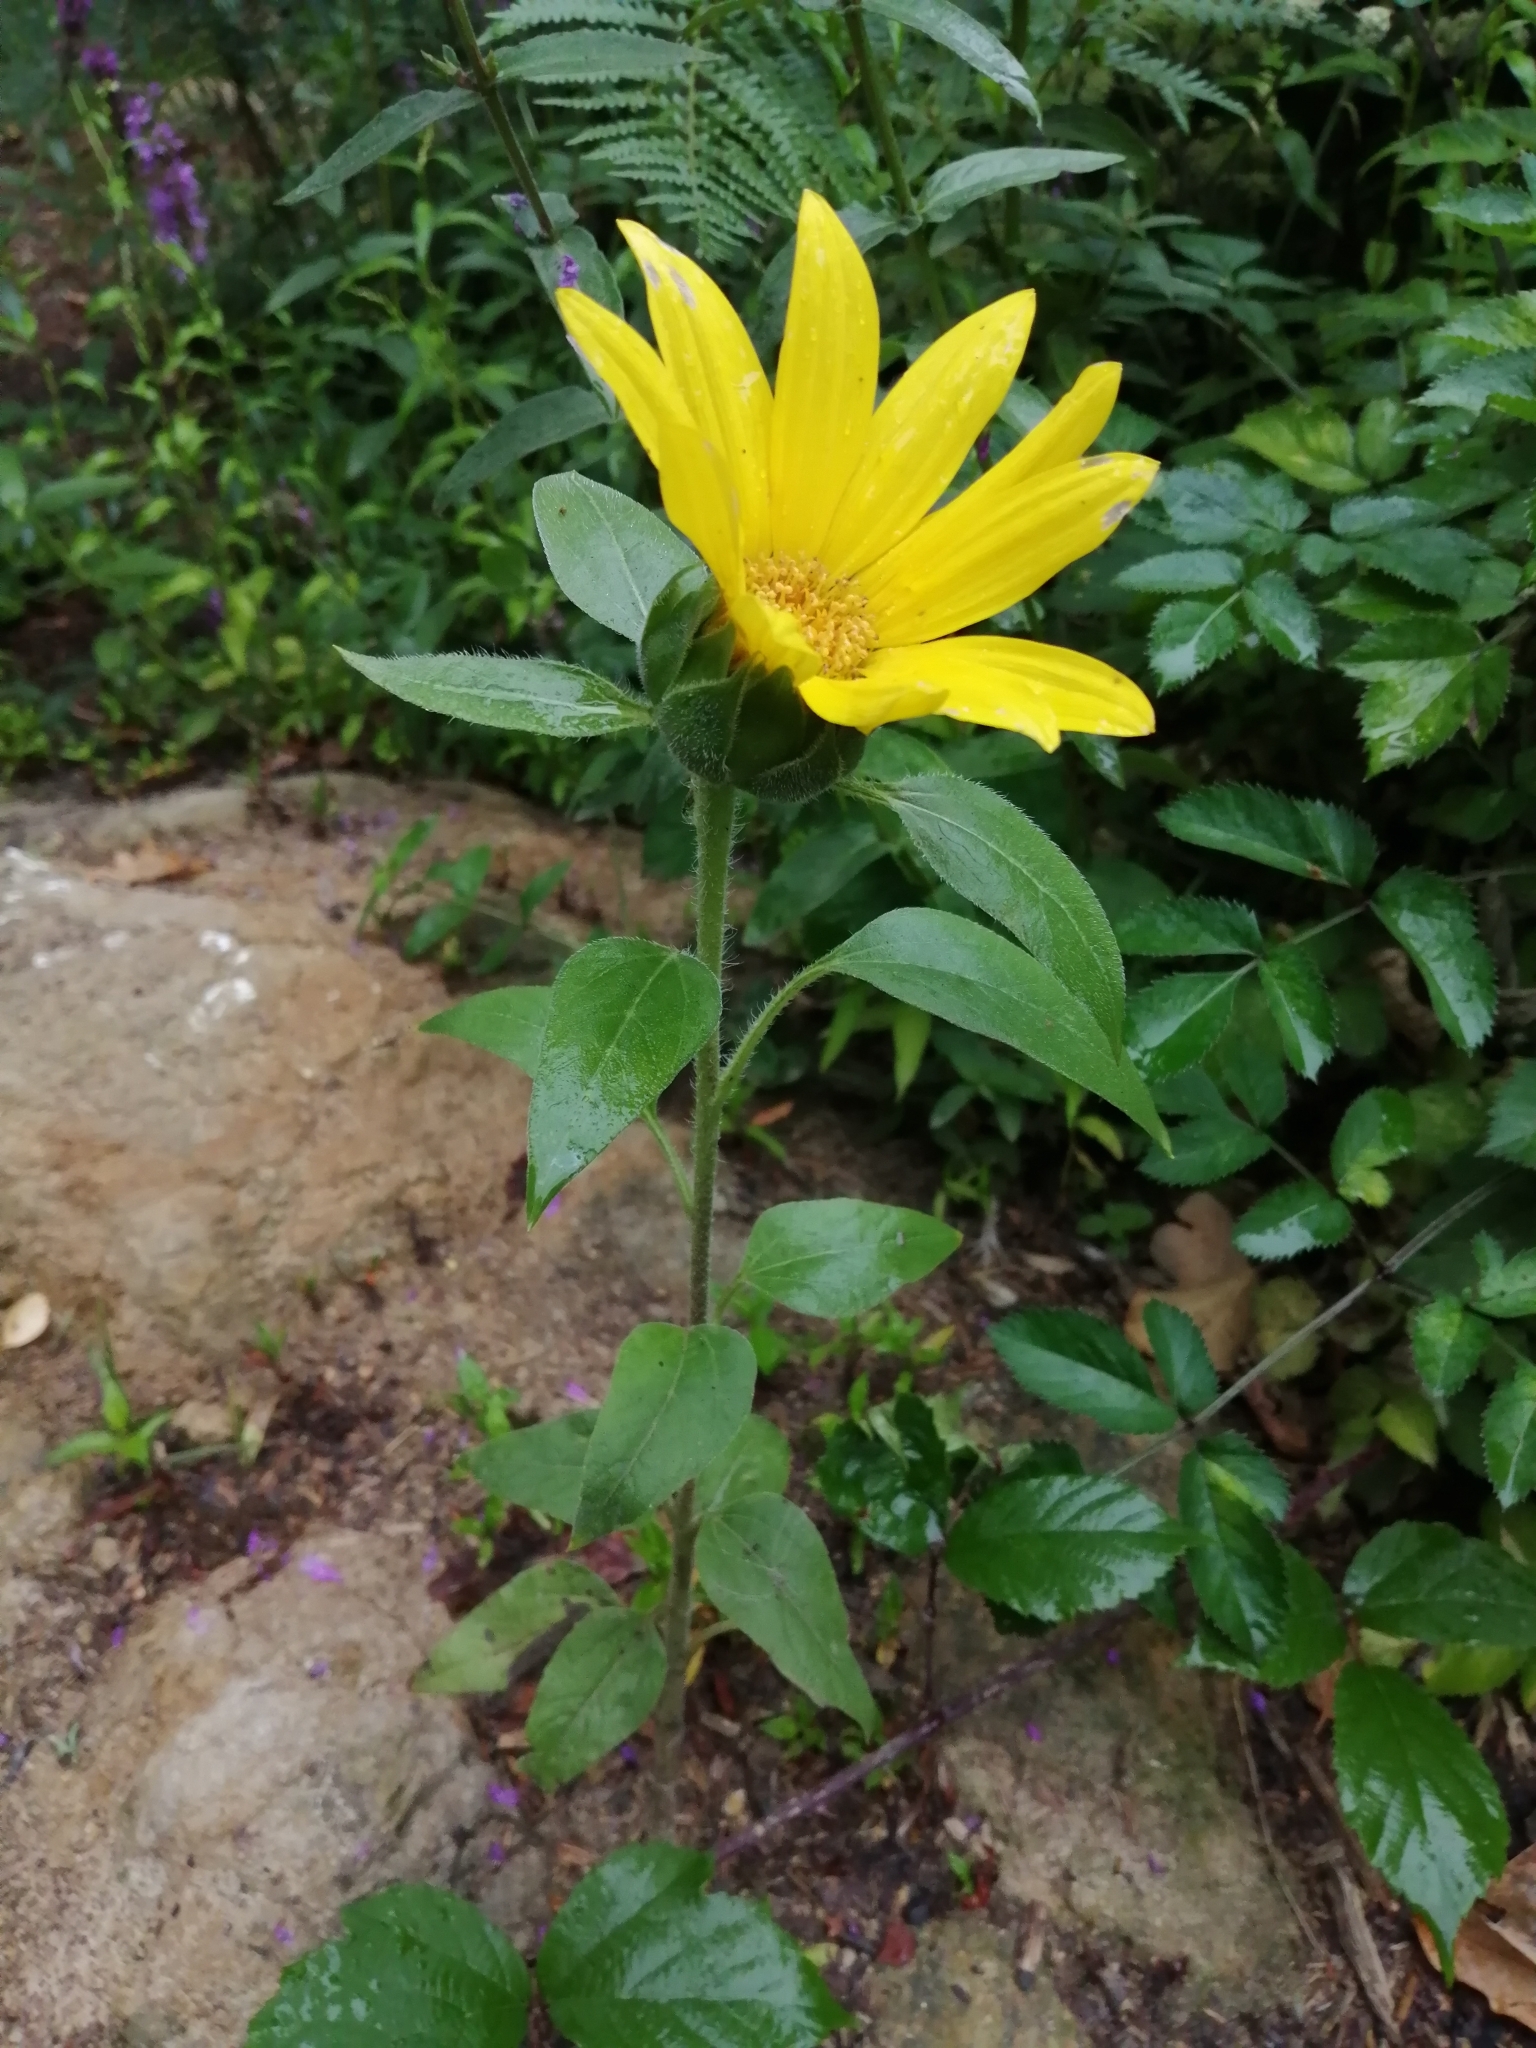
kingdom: Plantae
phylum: Tracheophyta
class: Magnoliopsida
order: Asterales
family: Asteraceae
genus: Helianthus
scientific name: Helianthus annuus
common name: Sunflower
